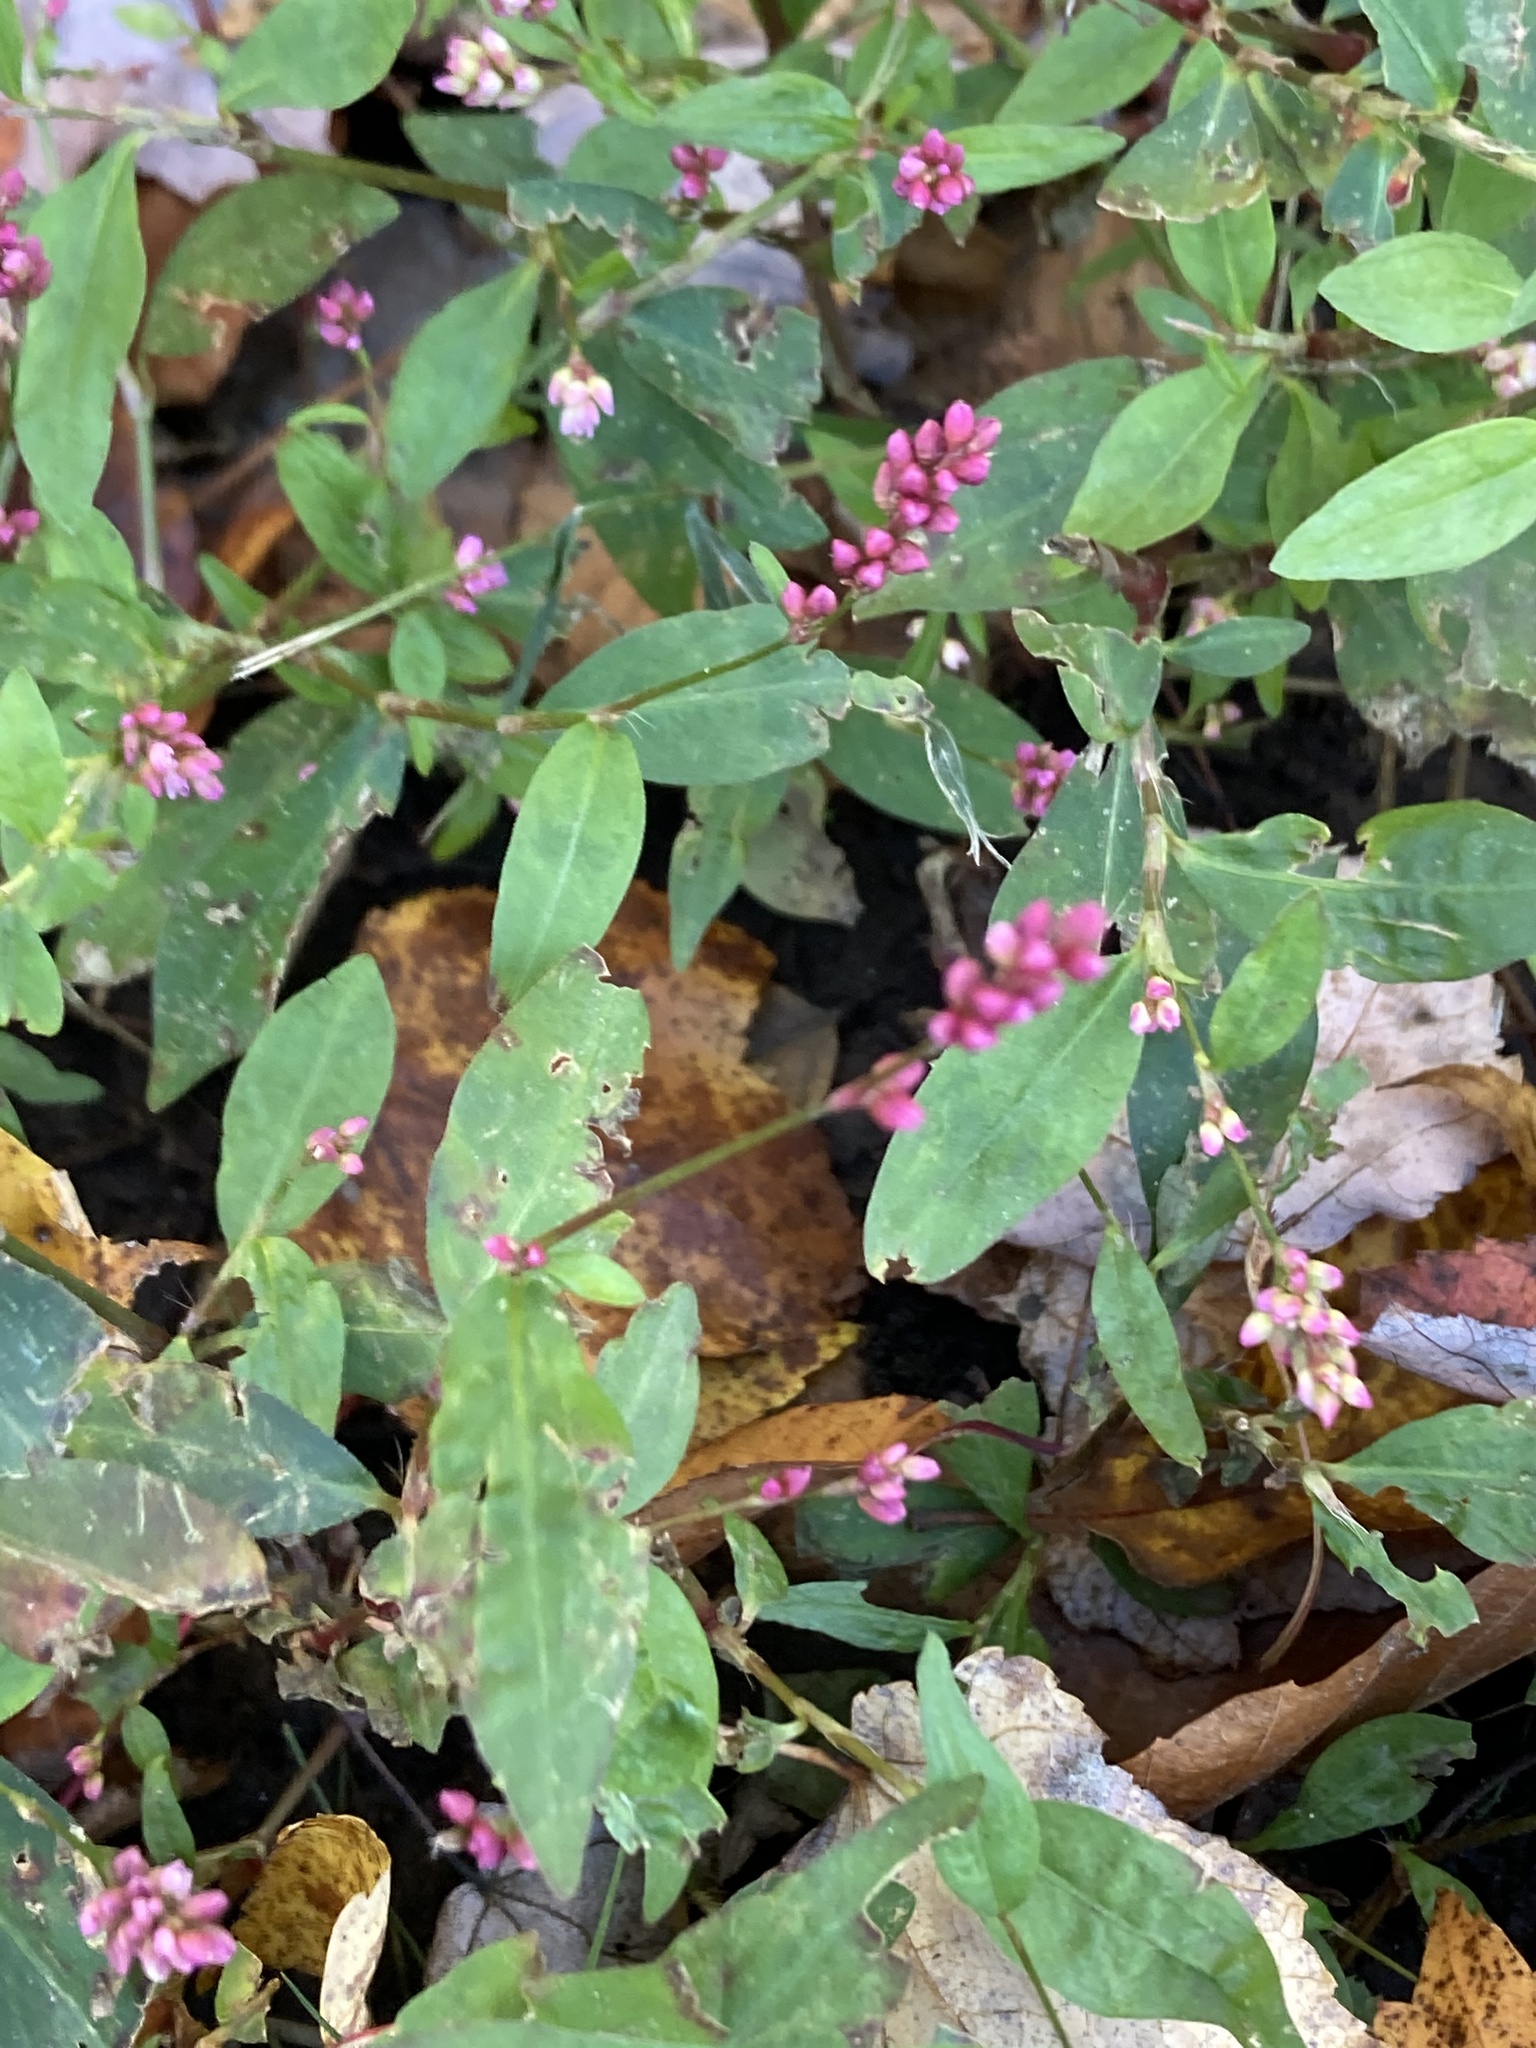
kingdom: Plantae
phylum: Tracheophyta
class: Magnoliopsida
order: Caryophyllales
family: Polygonaceae
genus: Persicaria
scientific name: Persicaria longiseta
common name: Bristly lady's-thumb
